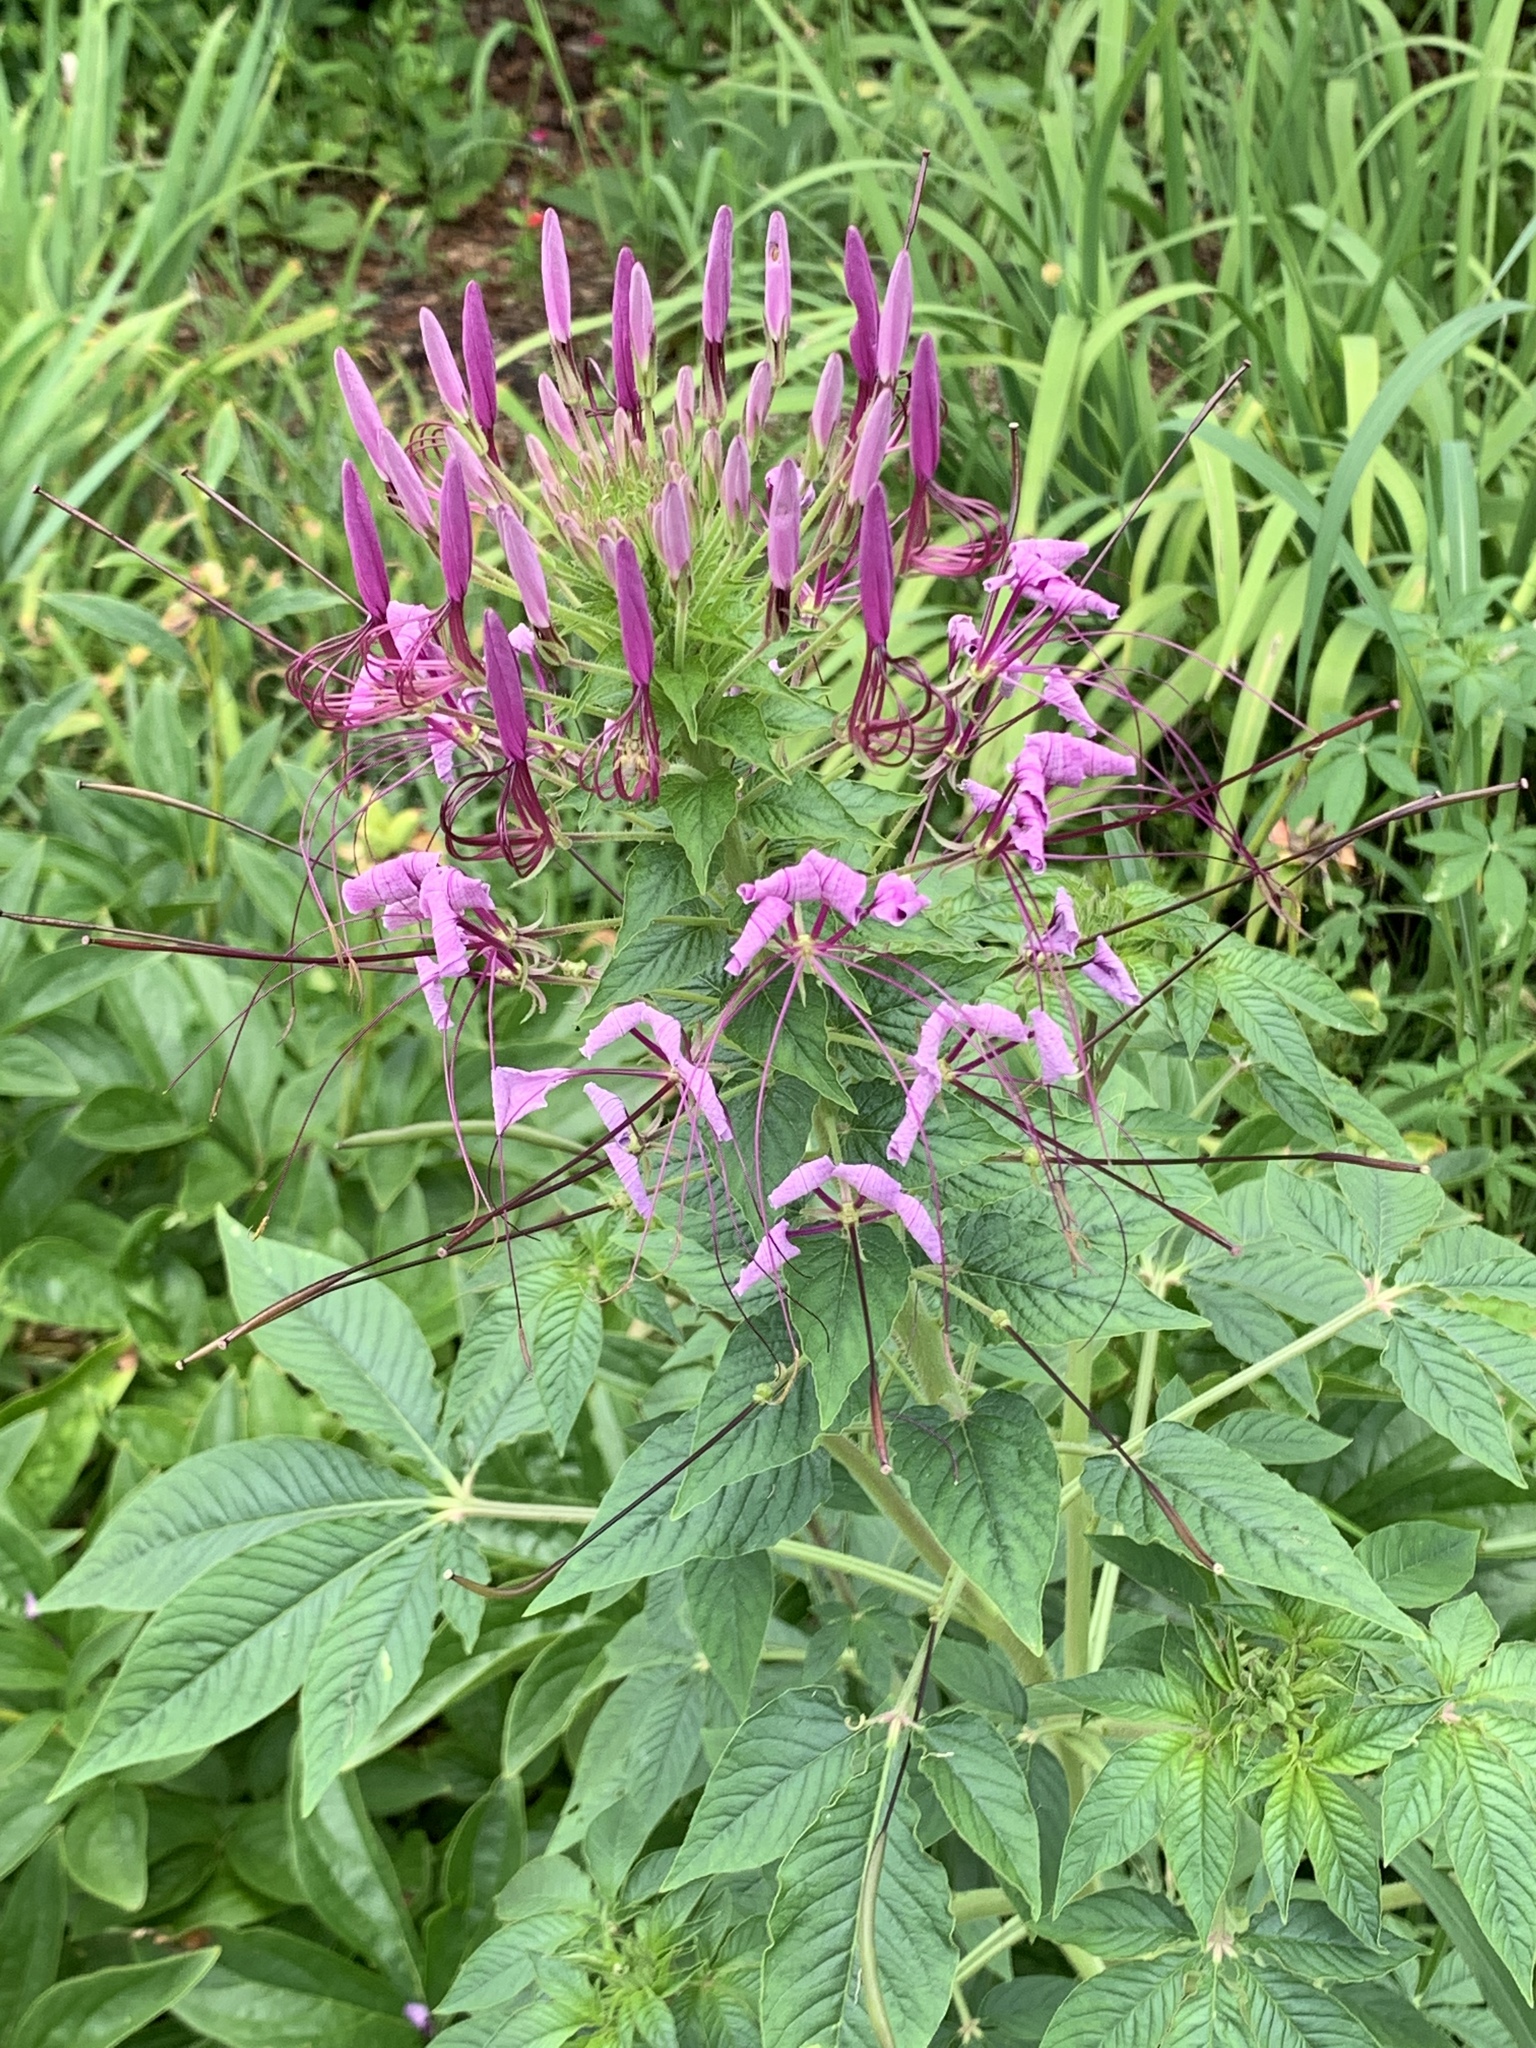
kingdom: Plantae
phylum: Tracheophyta
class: Magnoliopsida
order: Brassicales
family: Cleomaceae
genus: Tarenaya
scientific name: Tarenaya houtteana
